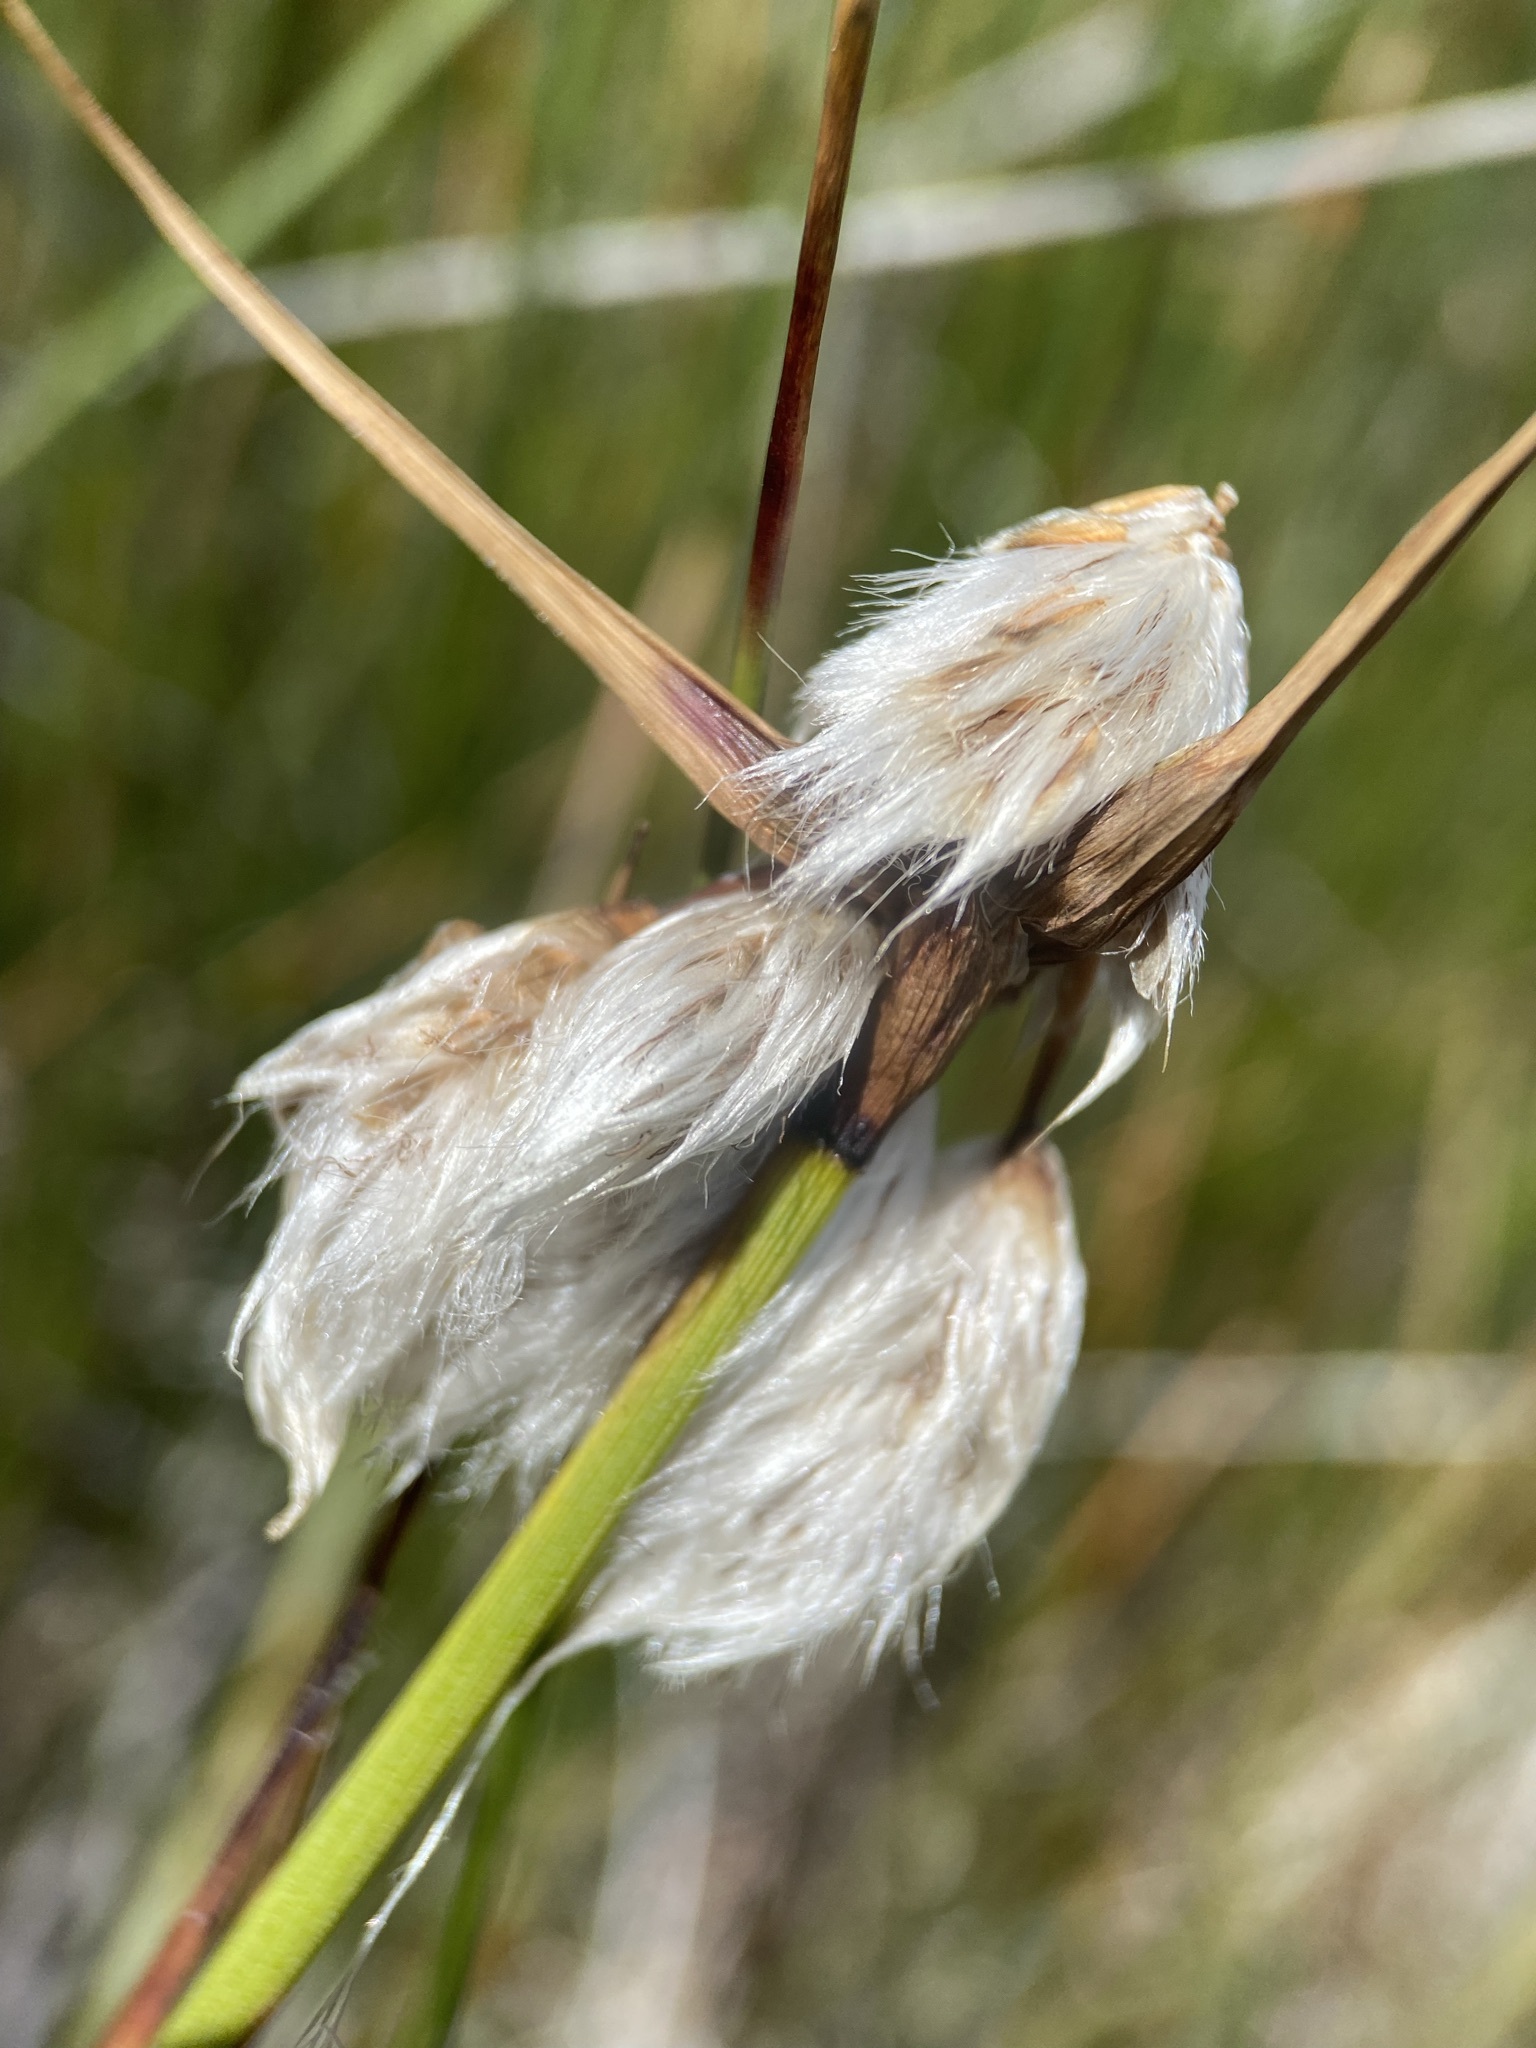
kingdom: Plantae
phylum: Tracheophyta
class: Liliopsida
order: Poales
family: Cyperaceae
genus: Eriophorum
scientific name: Eriophorum angustifolium
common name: Common cottongrass
